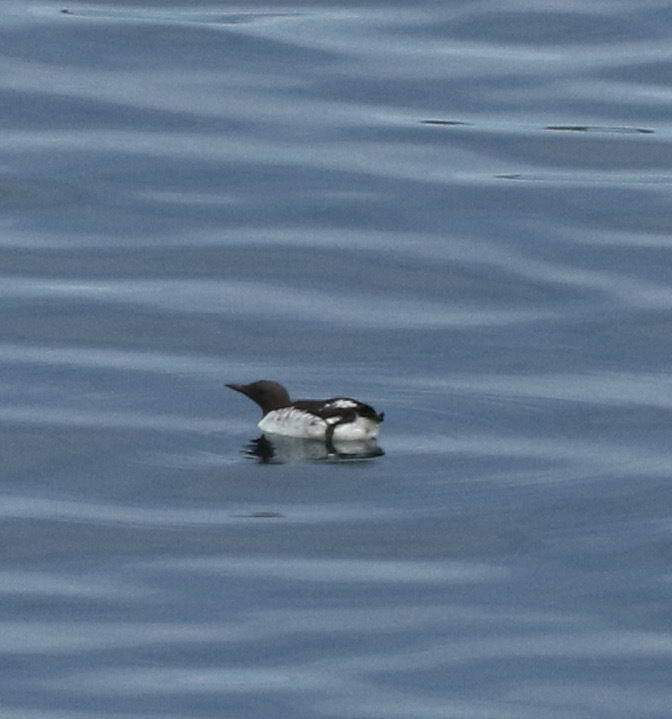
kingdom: Animalia
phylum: Chordata
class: Aves
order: Charadriiformes
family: Alcidae
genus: Uria
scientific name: Uria aalge
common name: Common murre
